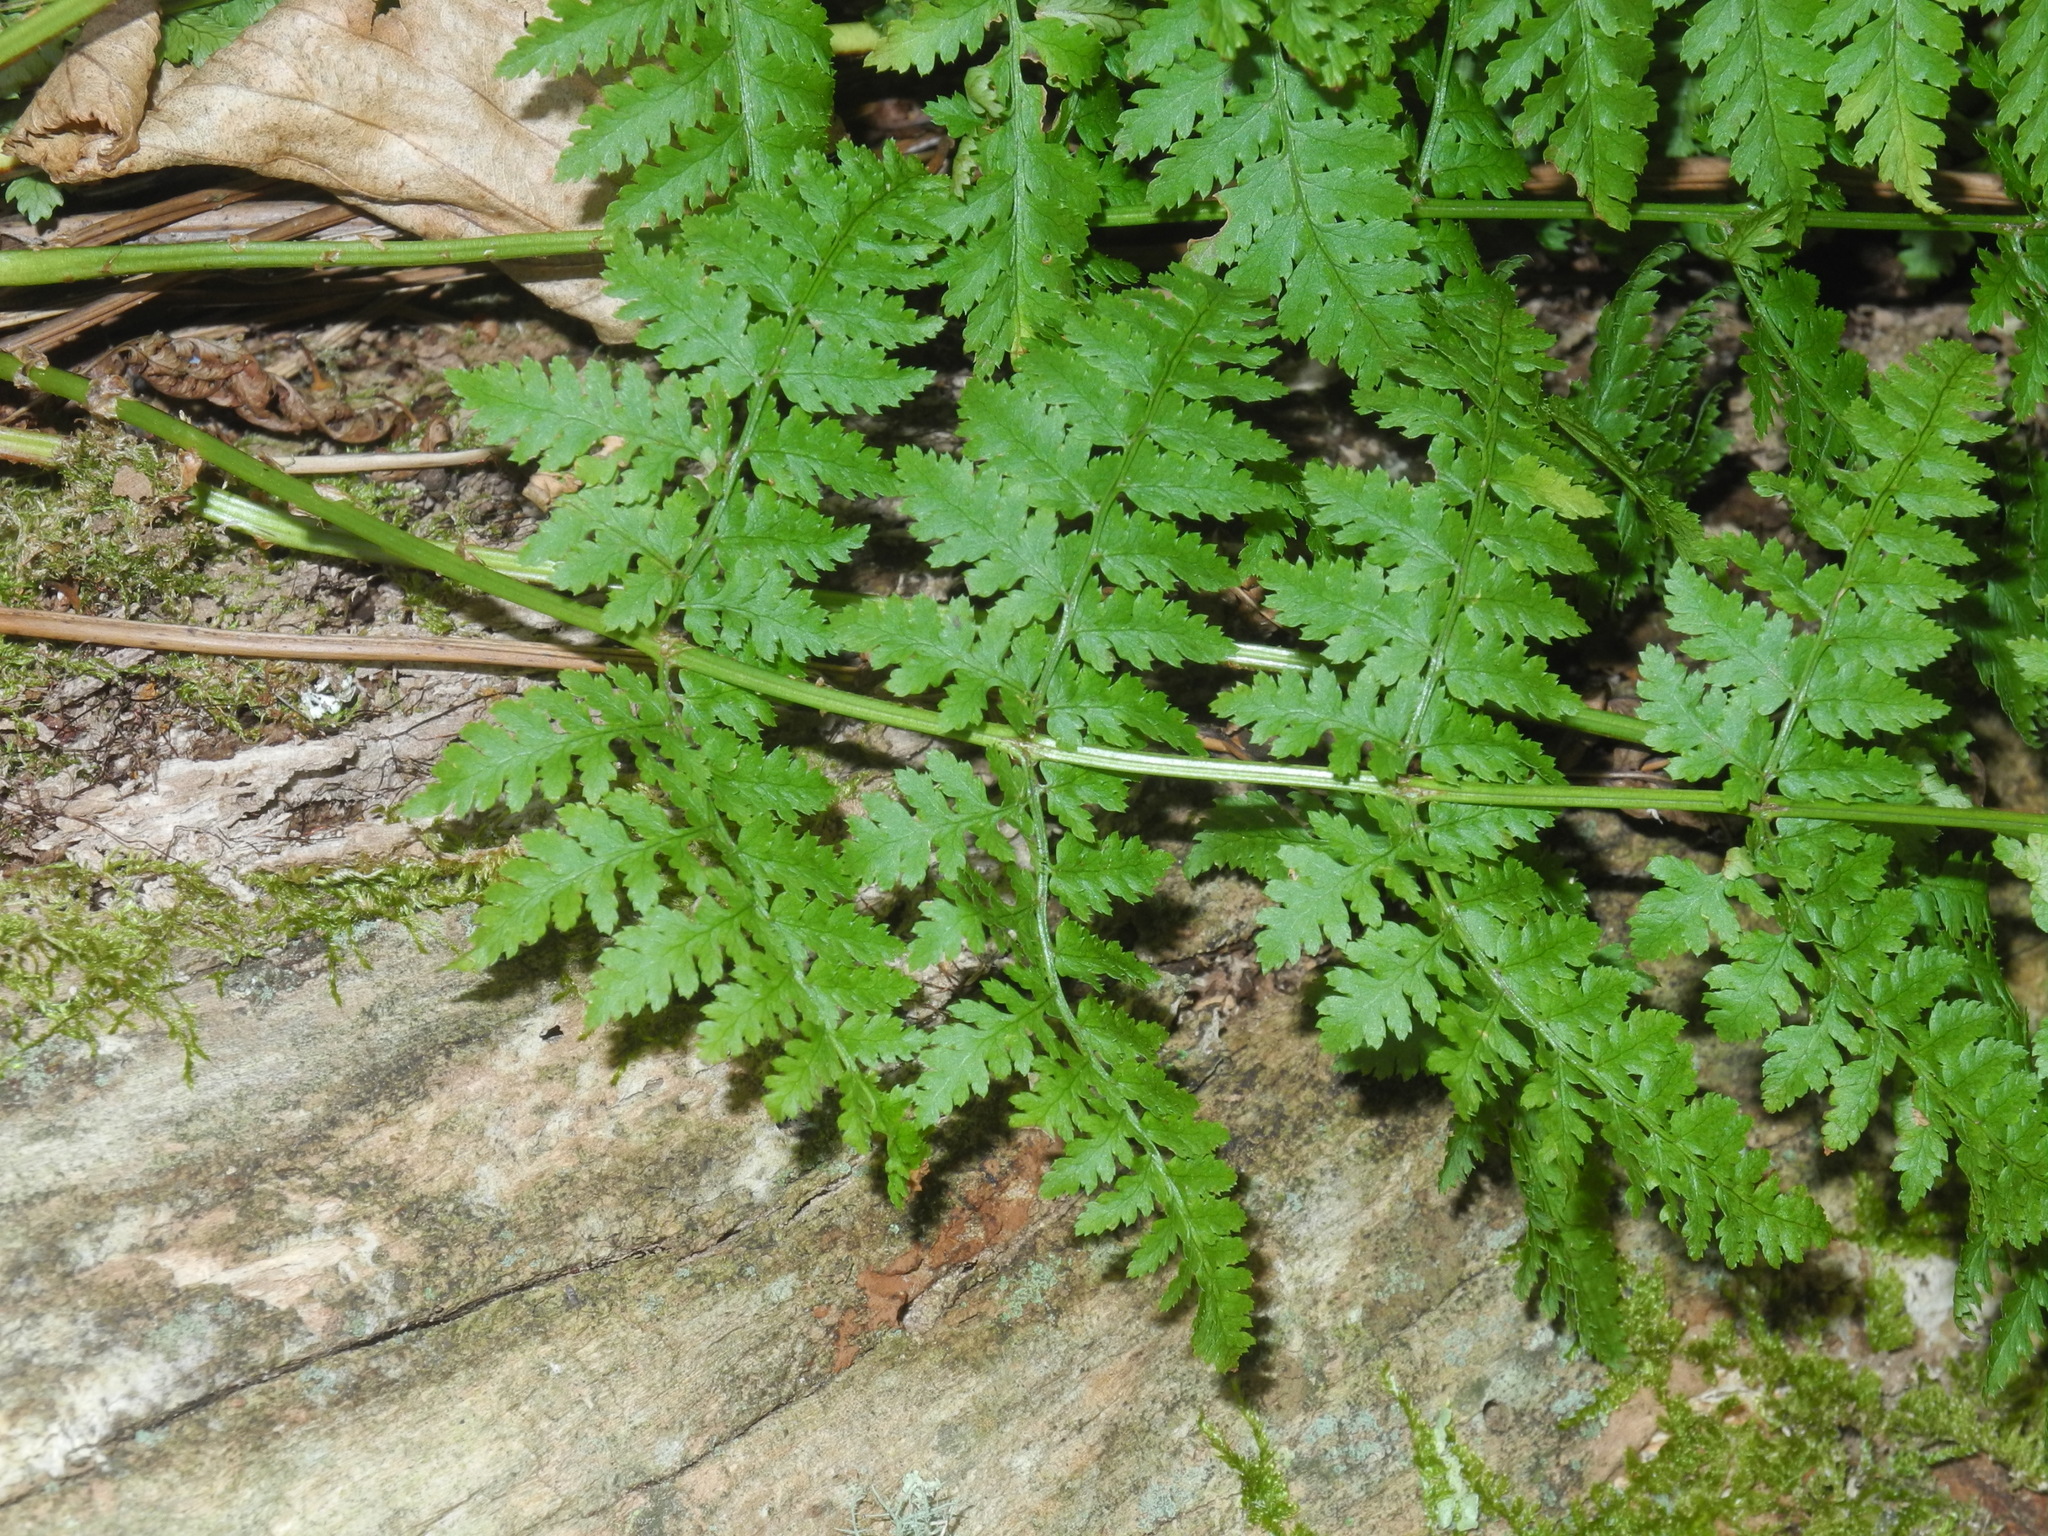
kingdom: Plantae
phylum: Tracheophyta
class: Polypodiopsida
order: Polypodiales
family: Dryopteridaceae
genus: Dryopteris
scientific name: Dryopteris intermedia
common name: Evergreen wood fern
